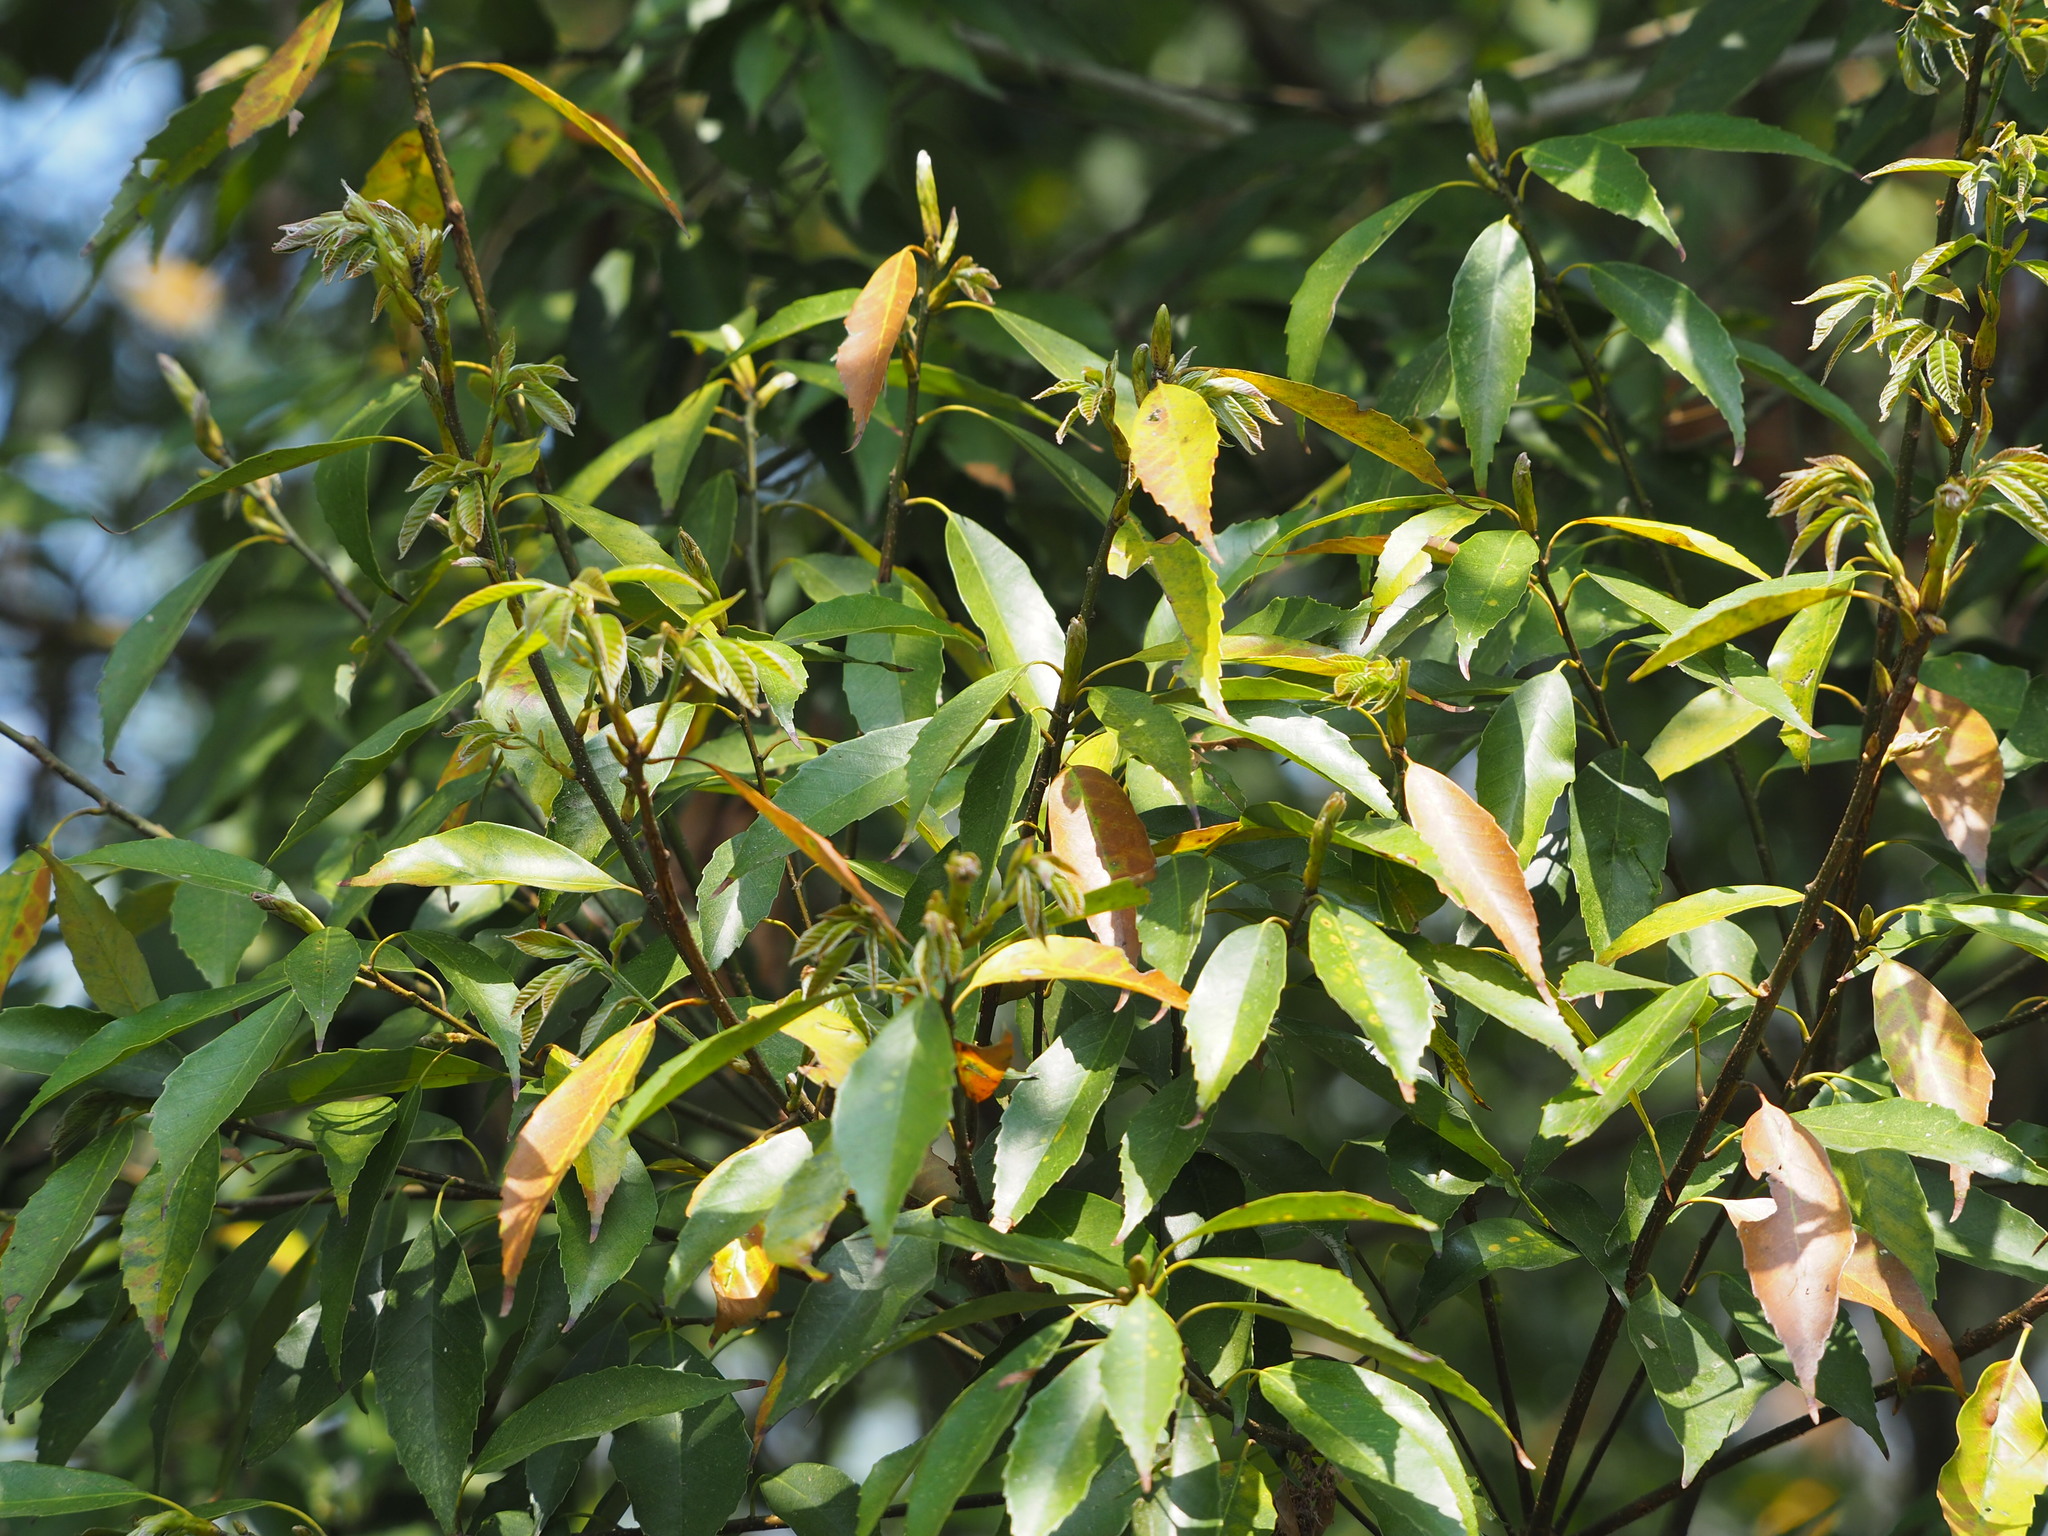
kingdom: Plantae
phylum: Tracheophyta
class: Magnoliopsida
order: Fagales
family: Fagaceae
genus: Quercus
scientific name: Quercus glauca
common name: Ring-cup oak
